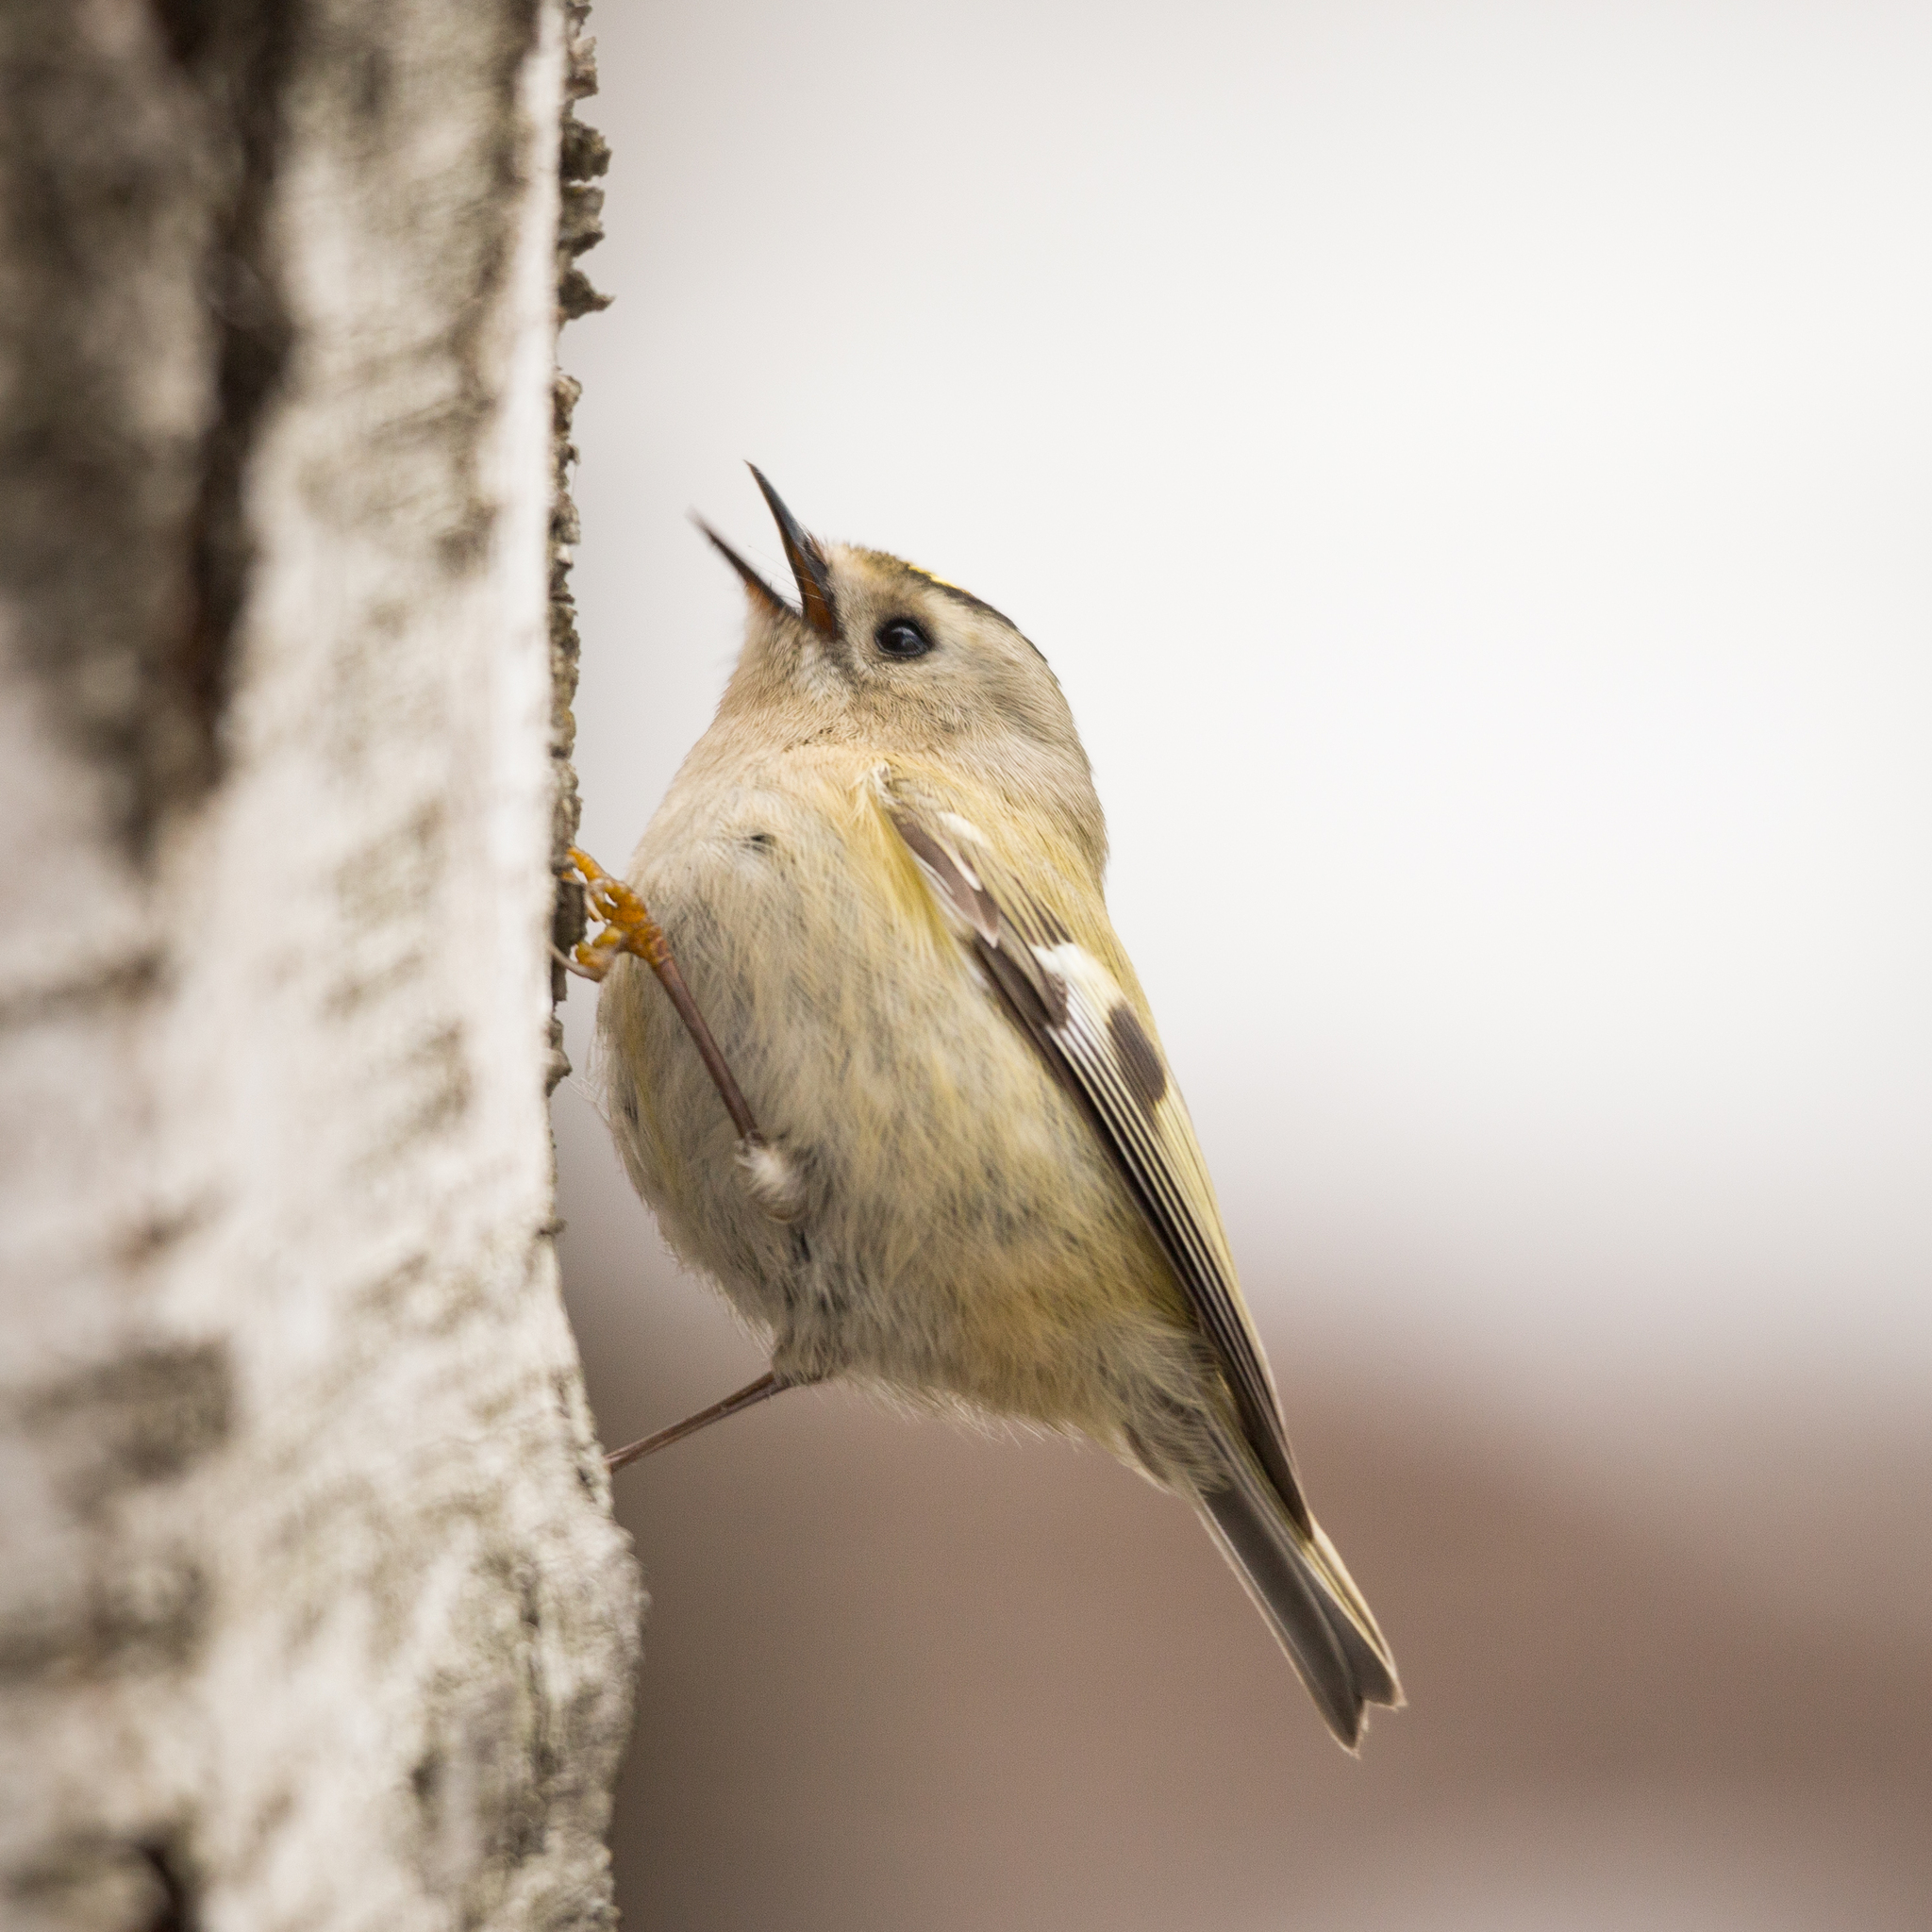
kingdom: Animalia
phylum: Chordata
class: Aves
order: Passeriformes
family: Regulidae
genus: Regulus
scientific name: Regulus regulus
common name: Goldcrest
